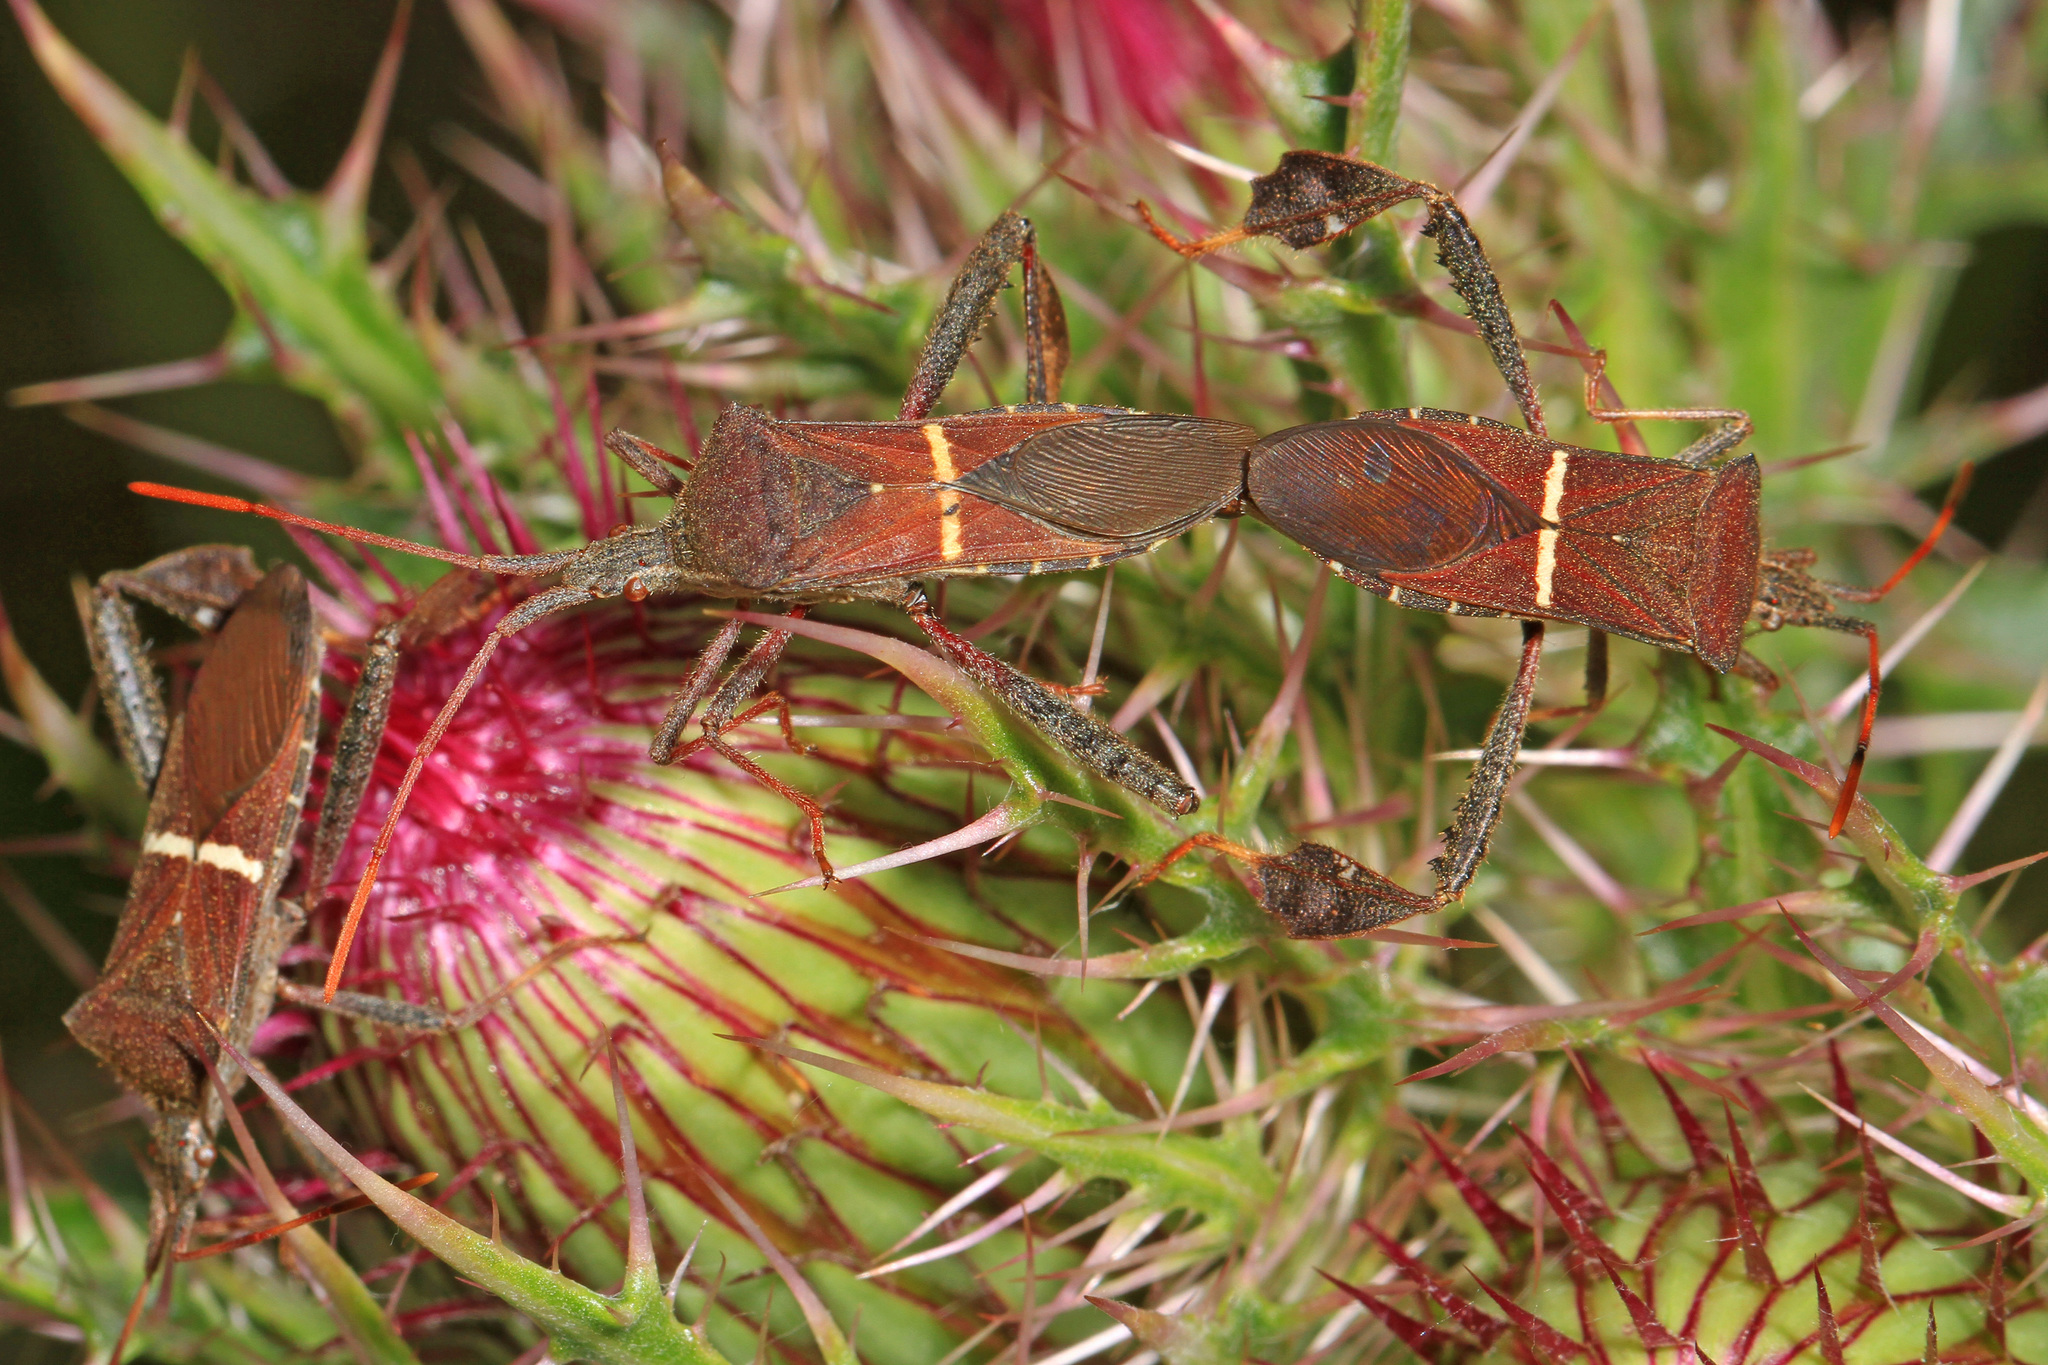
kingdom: Animalia
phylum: Arthropoda
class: Insecta
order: Hemiptera
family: Coreidae
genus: Leptoglossus
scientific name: Leptoglossus phyllopus
